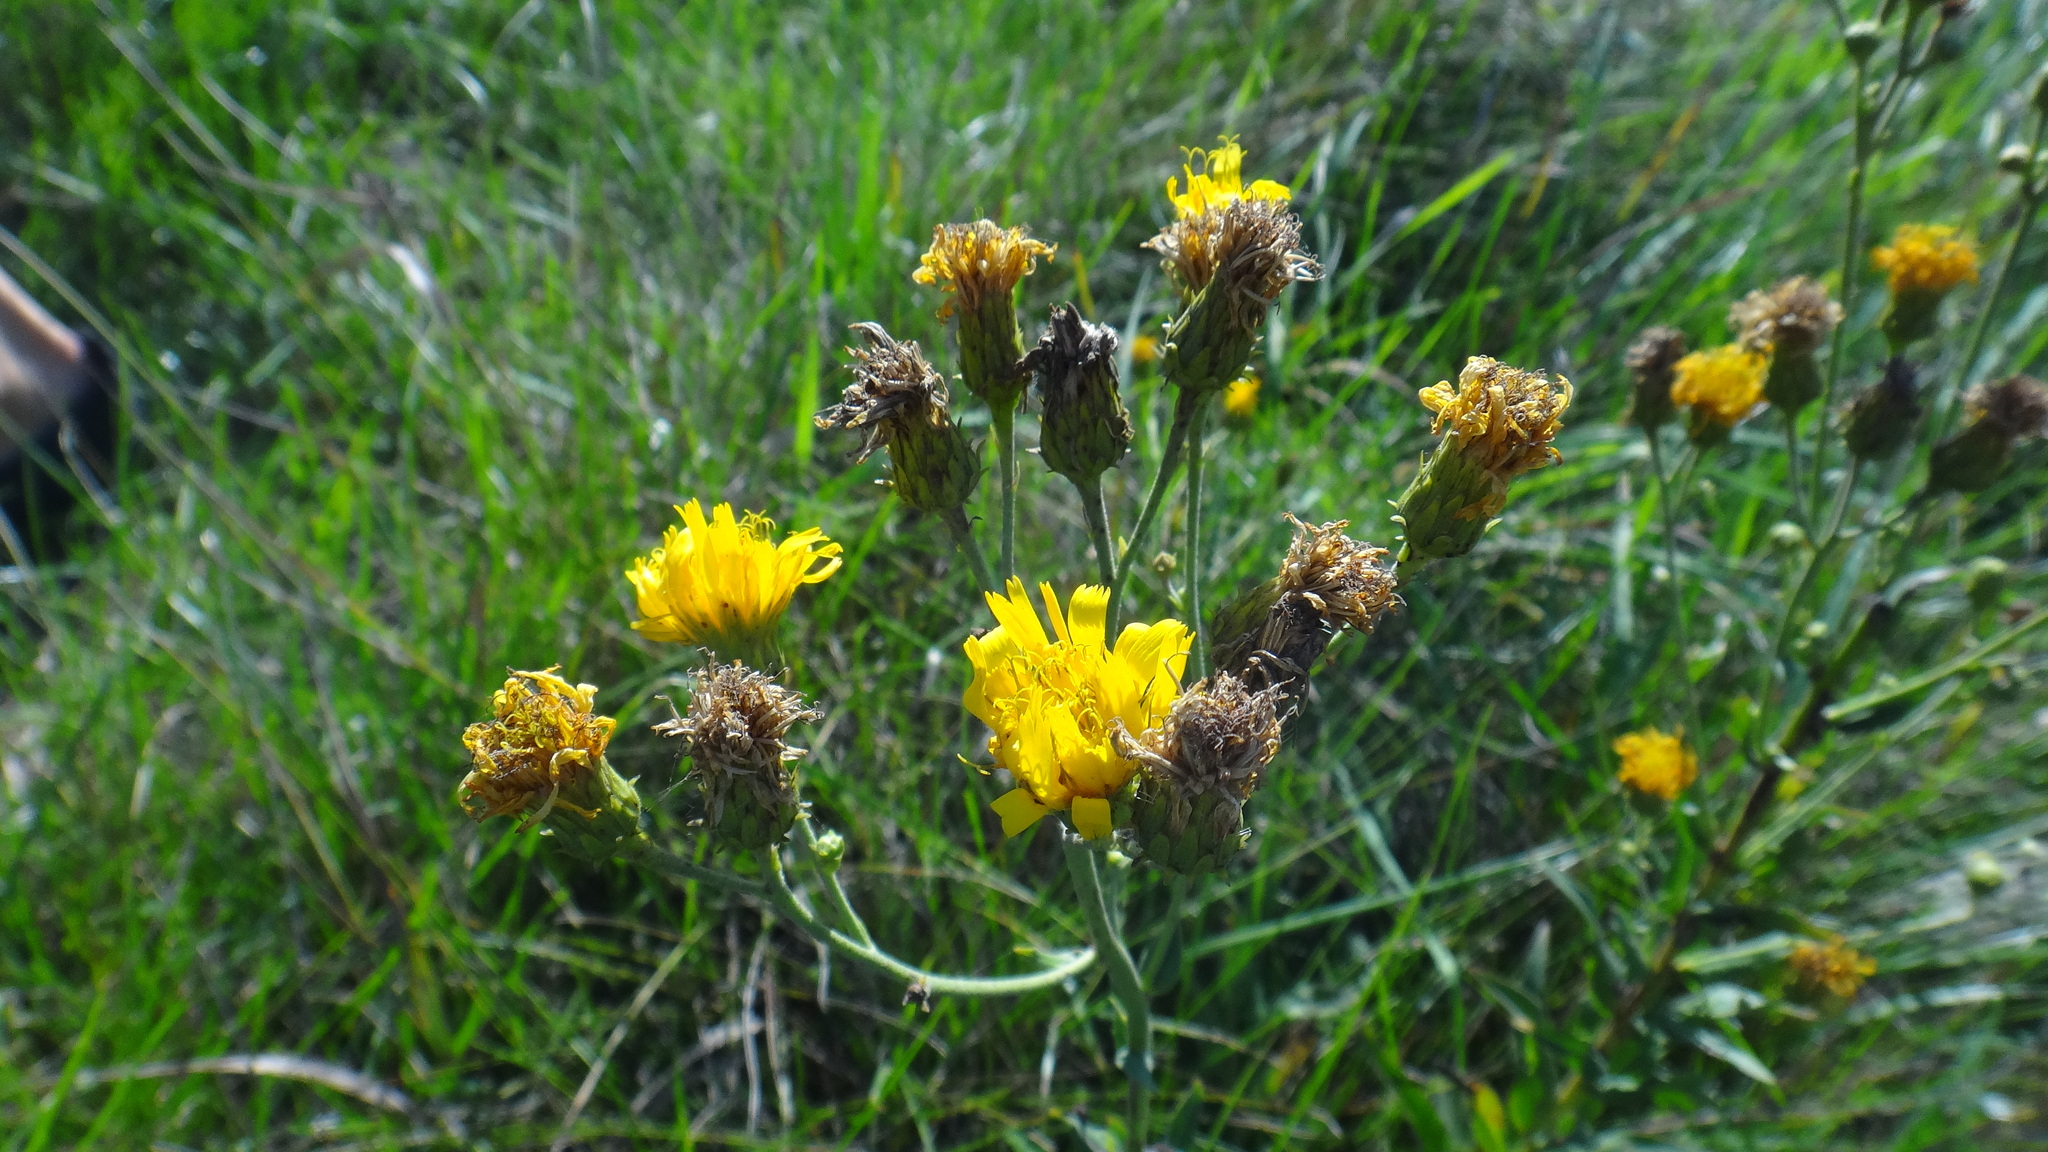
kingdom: Plantae
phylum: Tracheophyta
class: Magnoliopsida
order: Asterales
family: Asteraceae
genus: Hieracium
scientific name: Hieracium umbellatum
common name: Northern hawkweed
